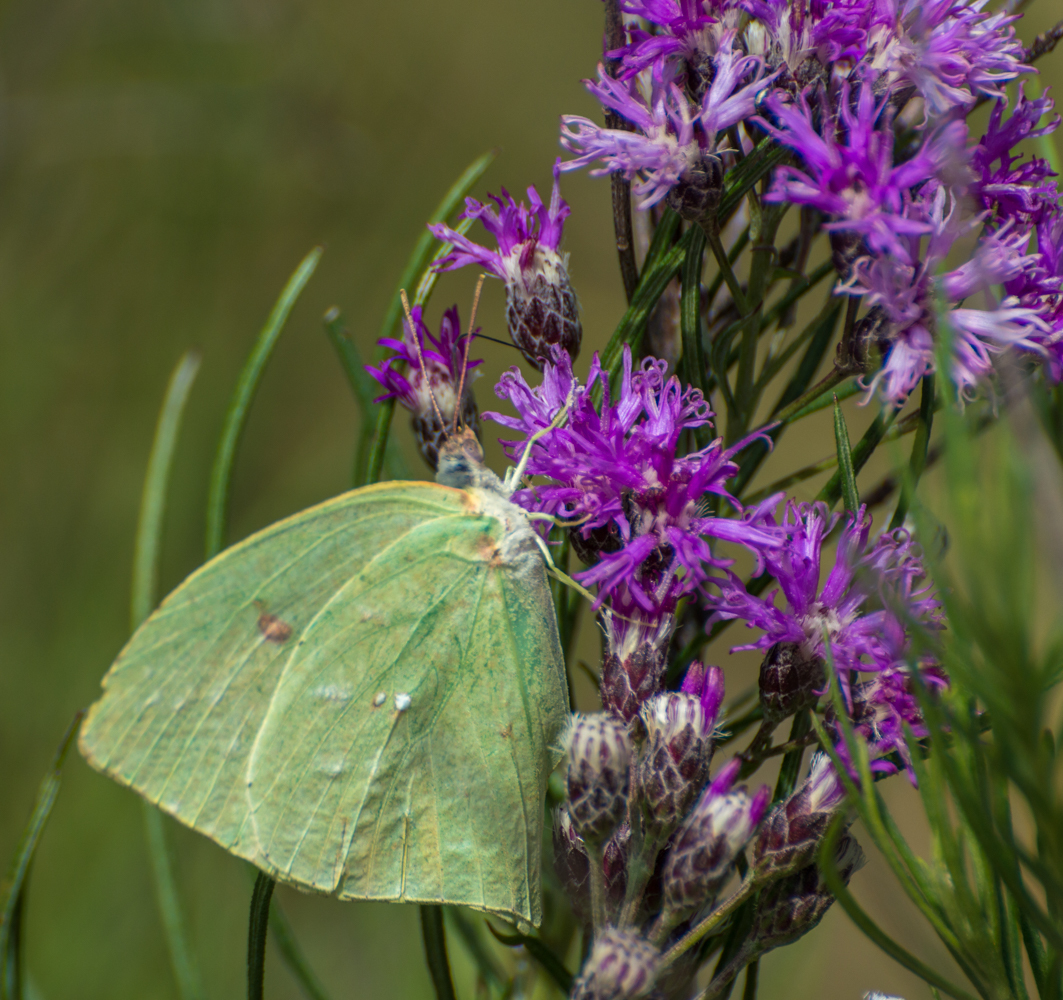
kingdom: Animalia
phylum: Arthropoda
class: Insecta
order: Lepidoptera
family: Pieridae
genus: Phoebis
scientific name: Phoebis neocypris
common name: Tailed sulphur
